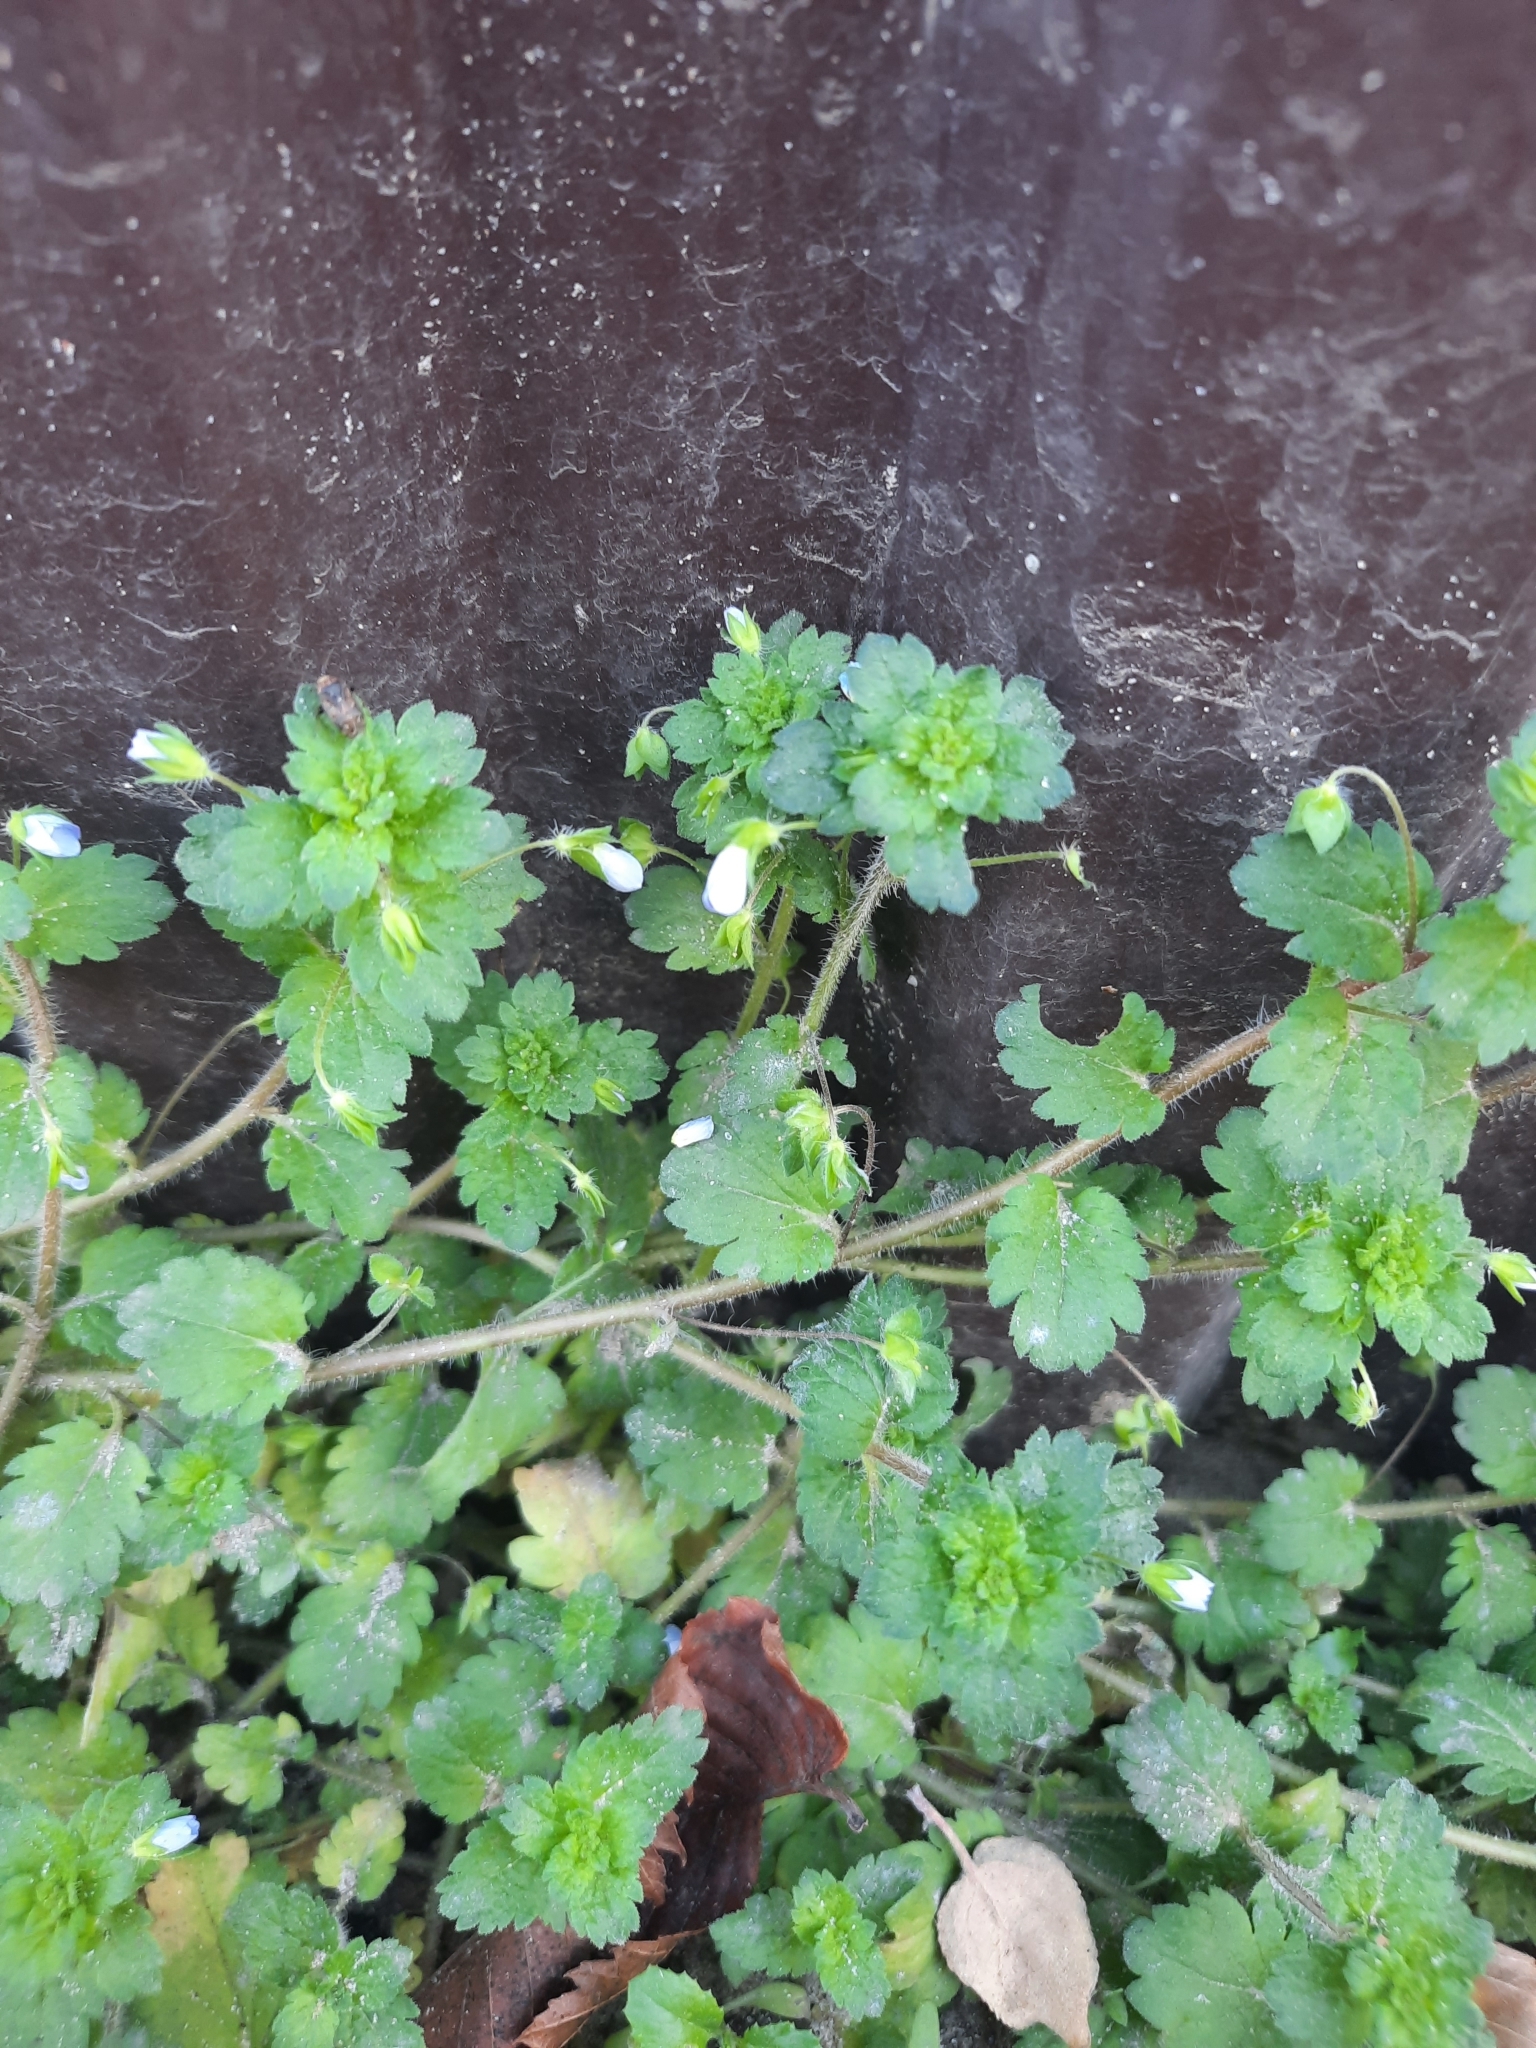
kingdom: Plantae
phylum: Tracheophyta
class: Magnoliopsida
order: Lamiales
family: Plantaginaceae
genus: Veronica
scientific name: Veronica persica
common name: Common field-speedwell
